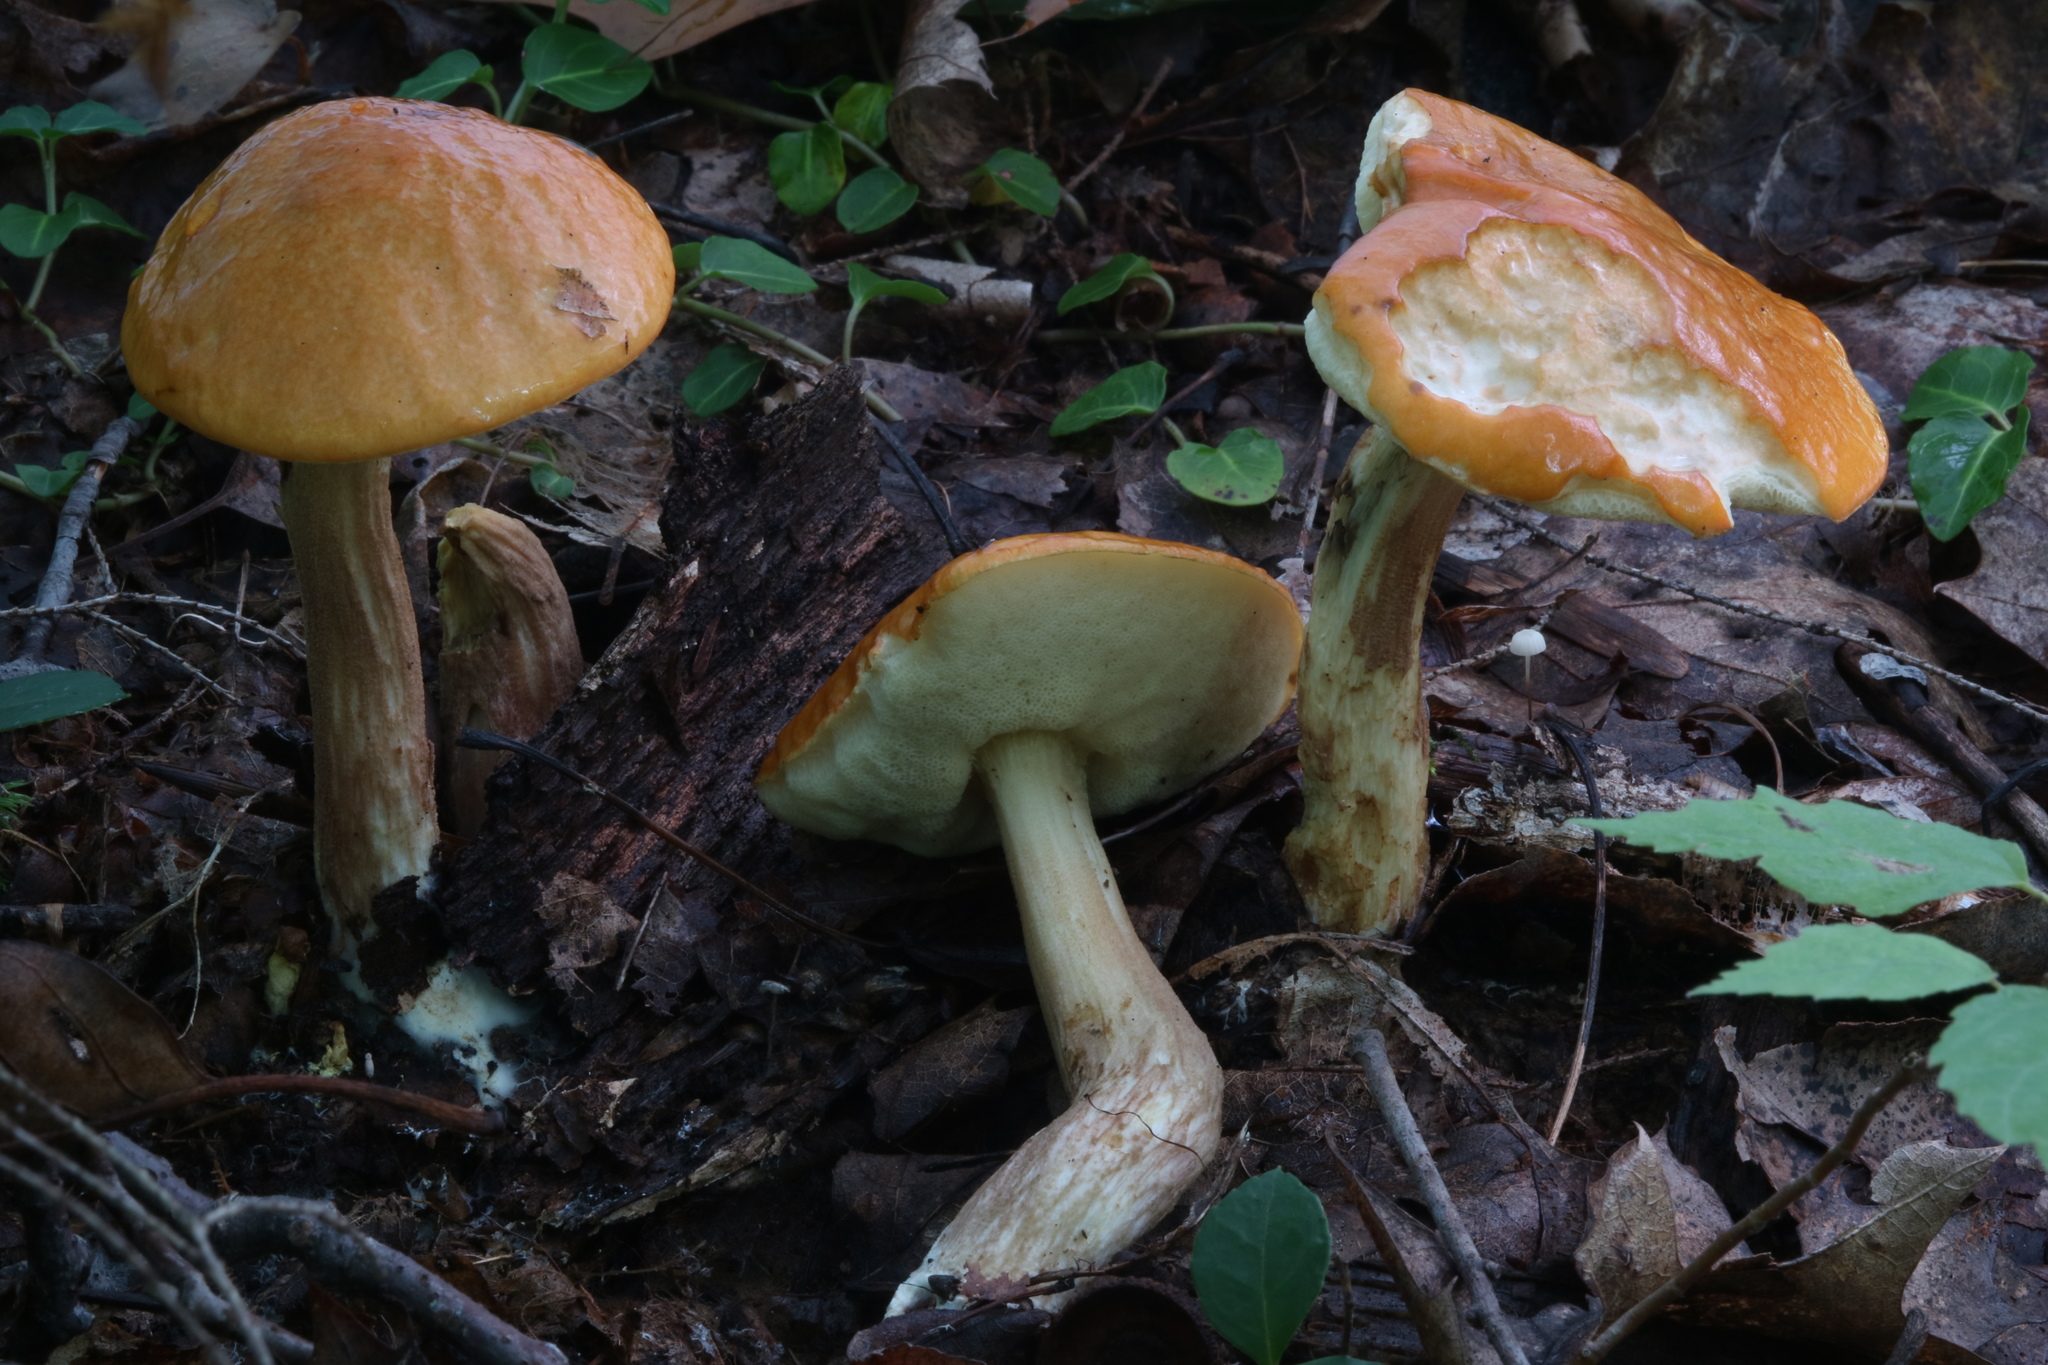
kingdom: Fungi
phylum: Basidiomycota
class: Agaricomycetes
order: Boletales
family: Boletaceae
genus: Leccinum
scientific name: Leccinum longicurvipes
